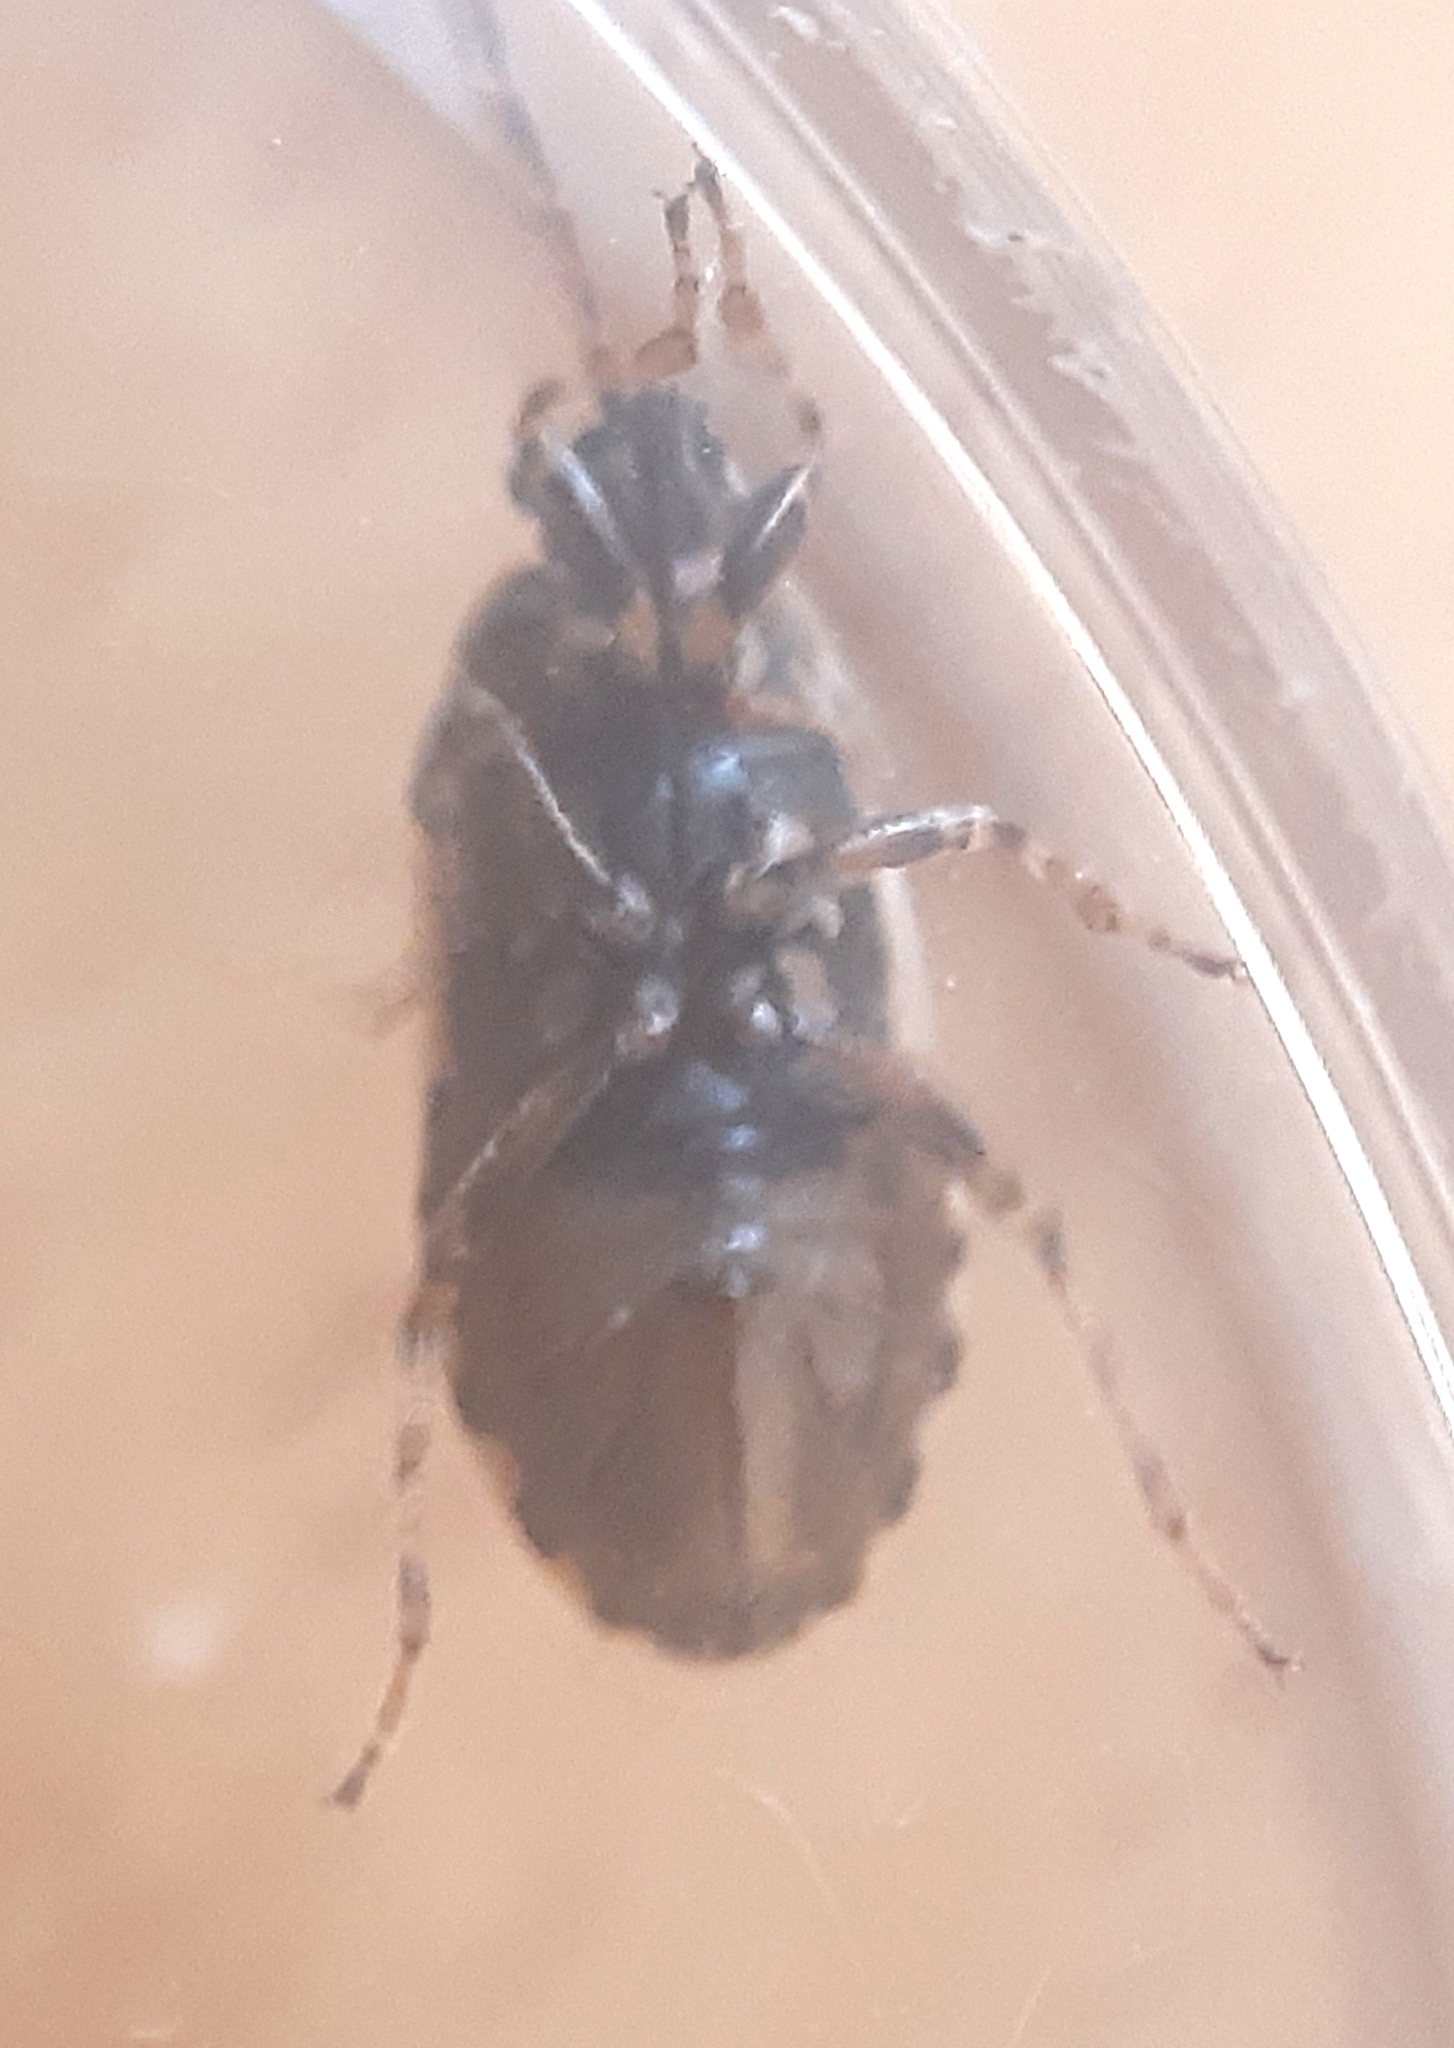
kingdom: Animalia
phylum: Arthropoda
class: Insecta
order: Hemiptera
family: Heterogastridae
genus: Platyplax
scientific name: Platyplax salviae
